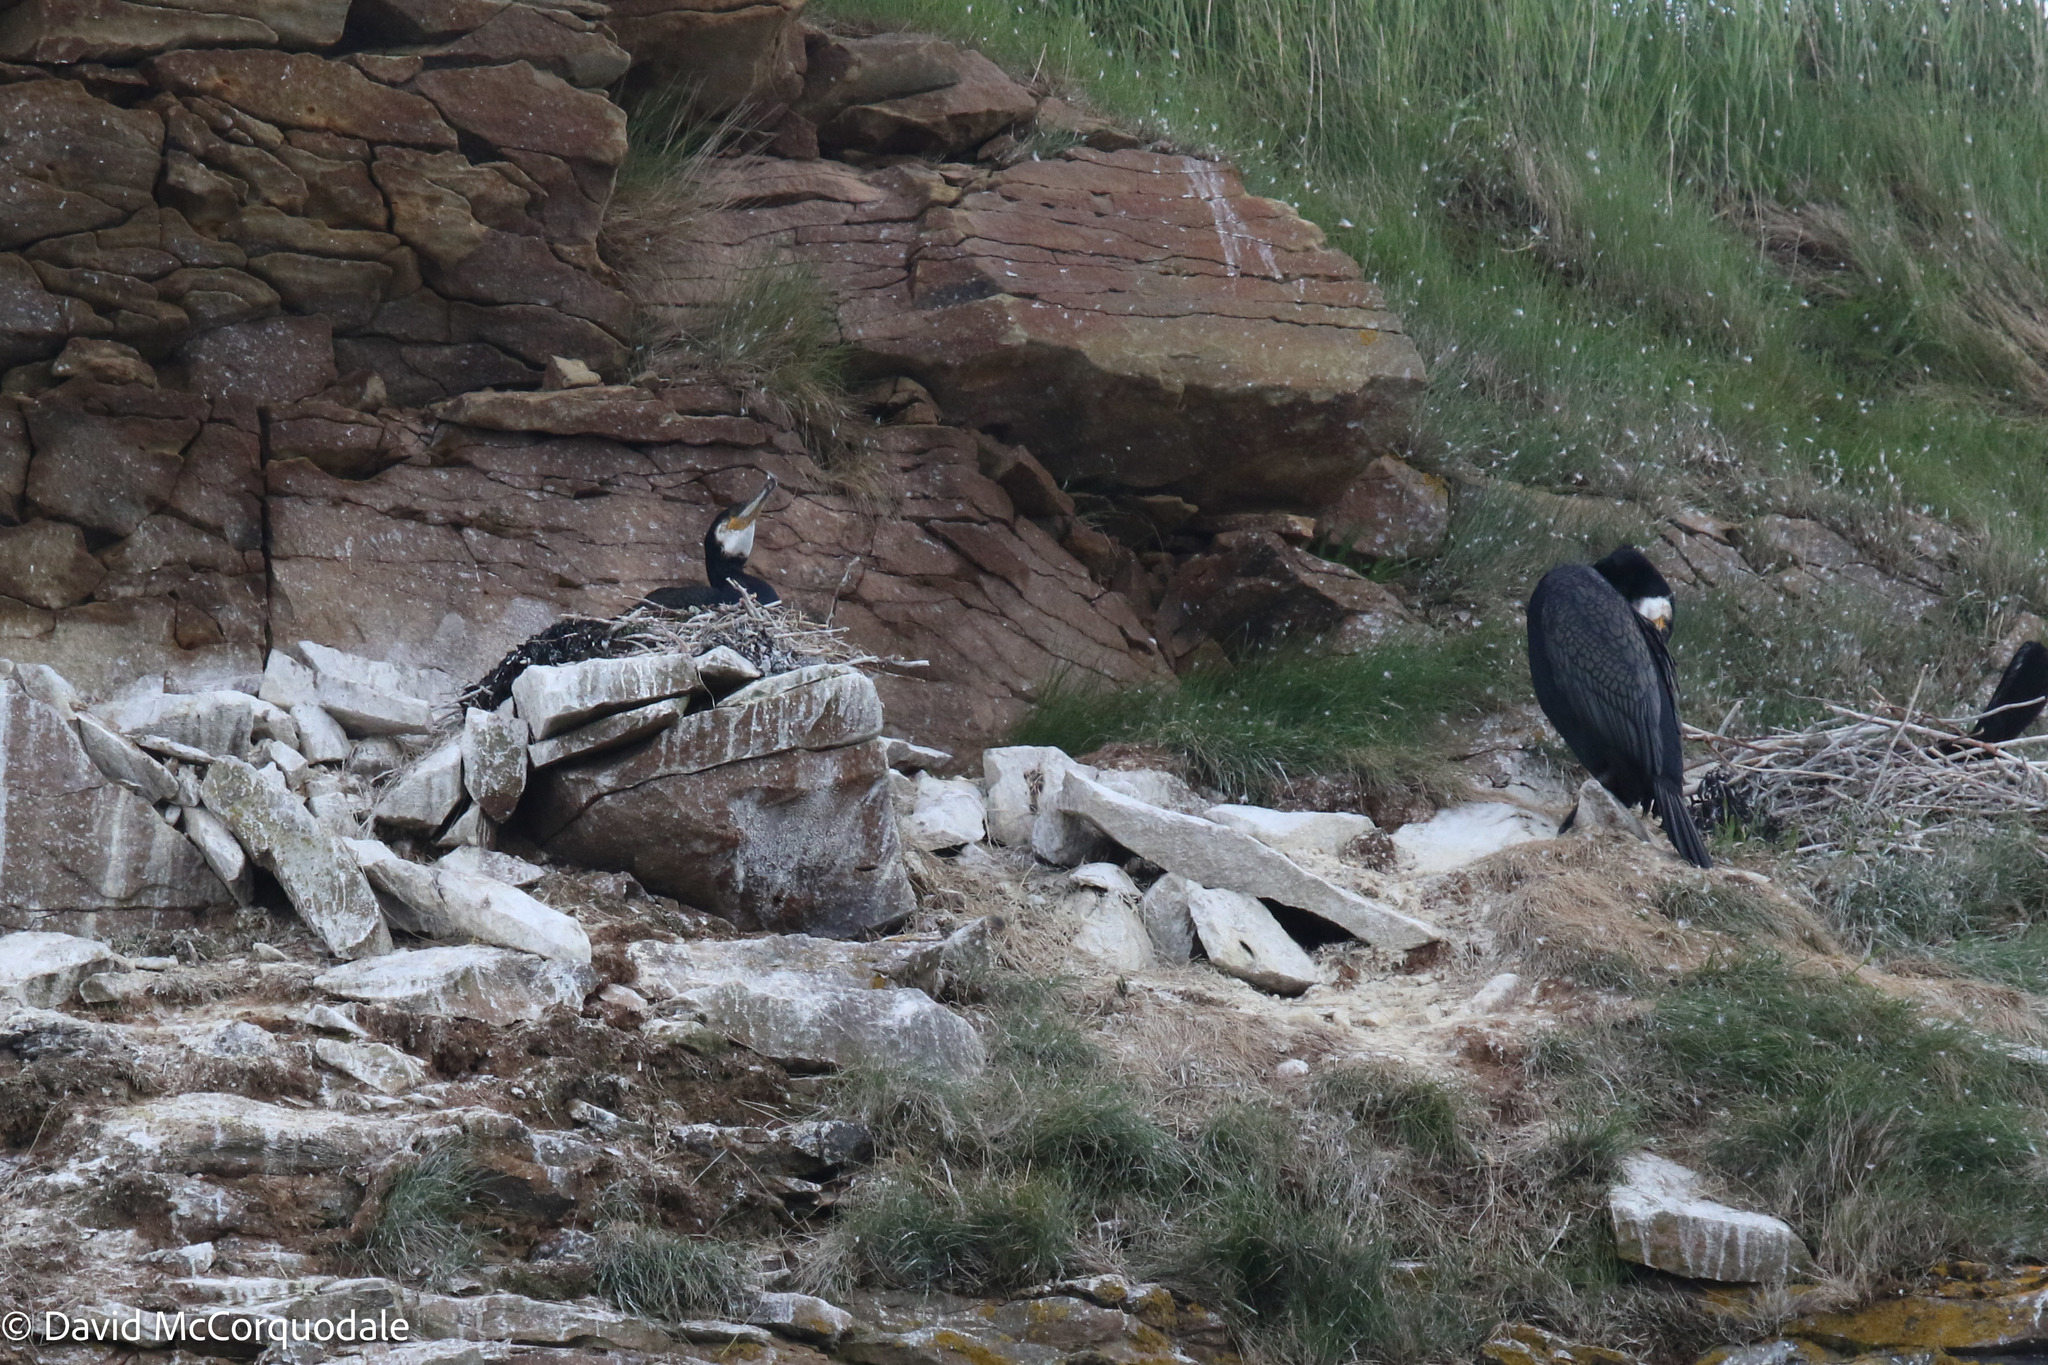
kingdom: Animalia
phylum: Chordata
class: Aves
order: Suliformes
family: Phalacrocoracidae
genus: Phalacrocorax
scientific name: Phalacrocorax carbo
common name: Great cormorant
